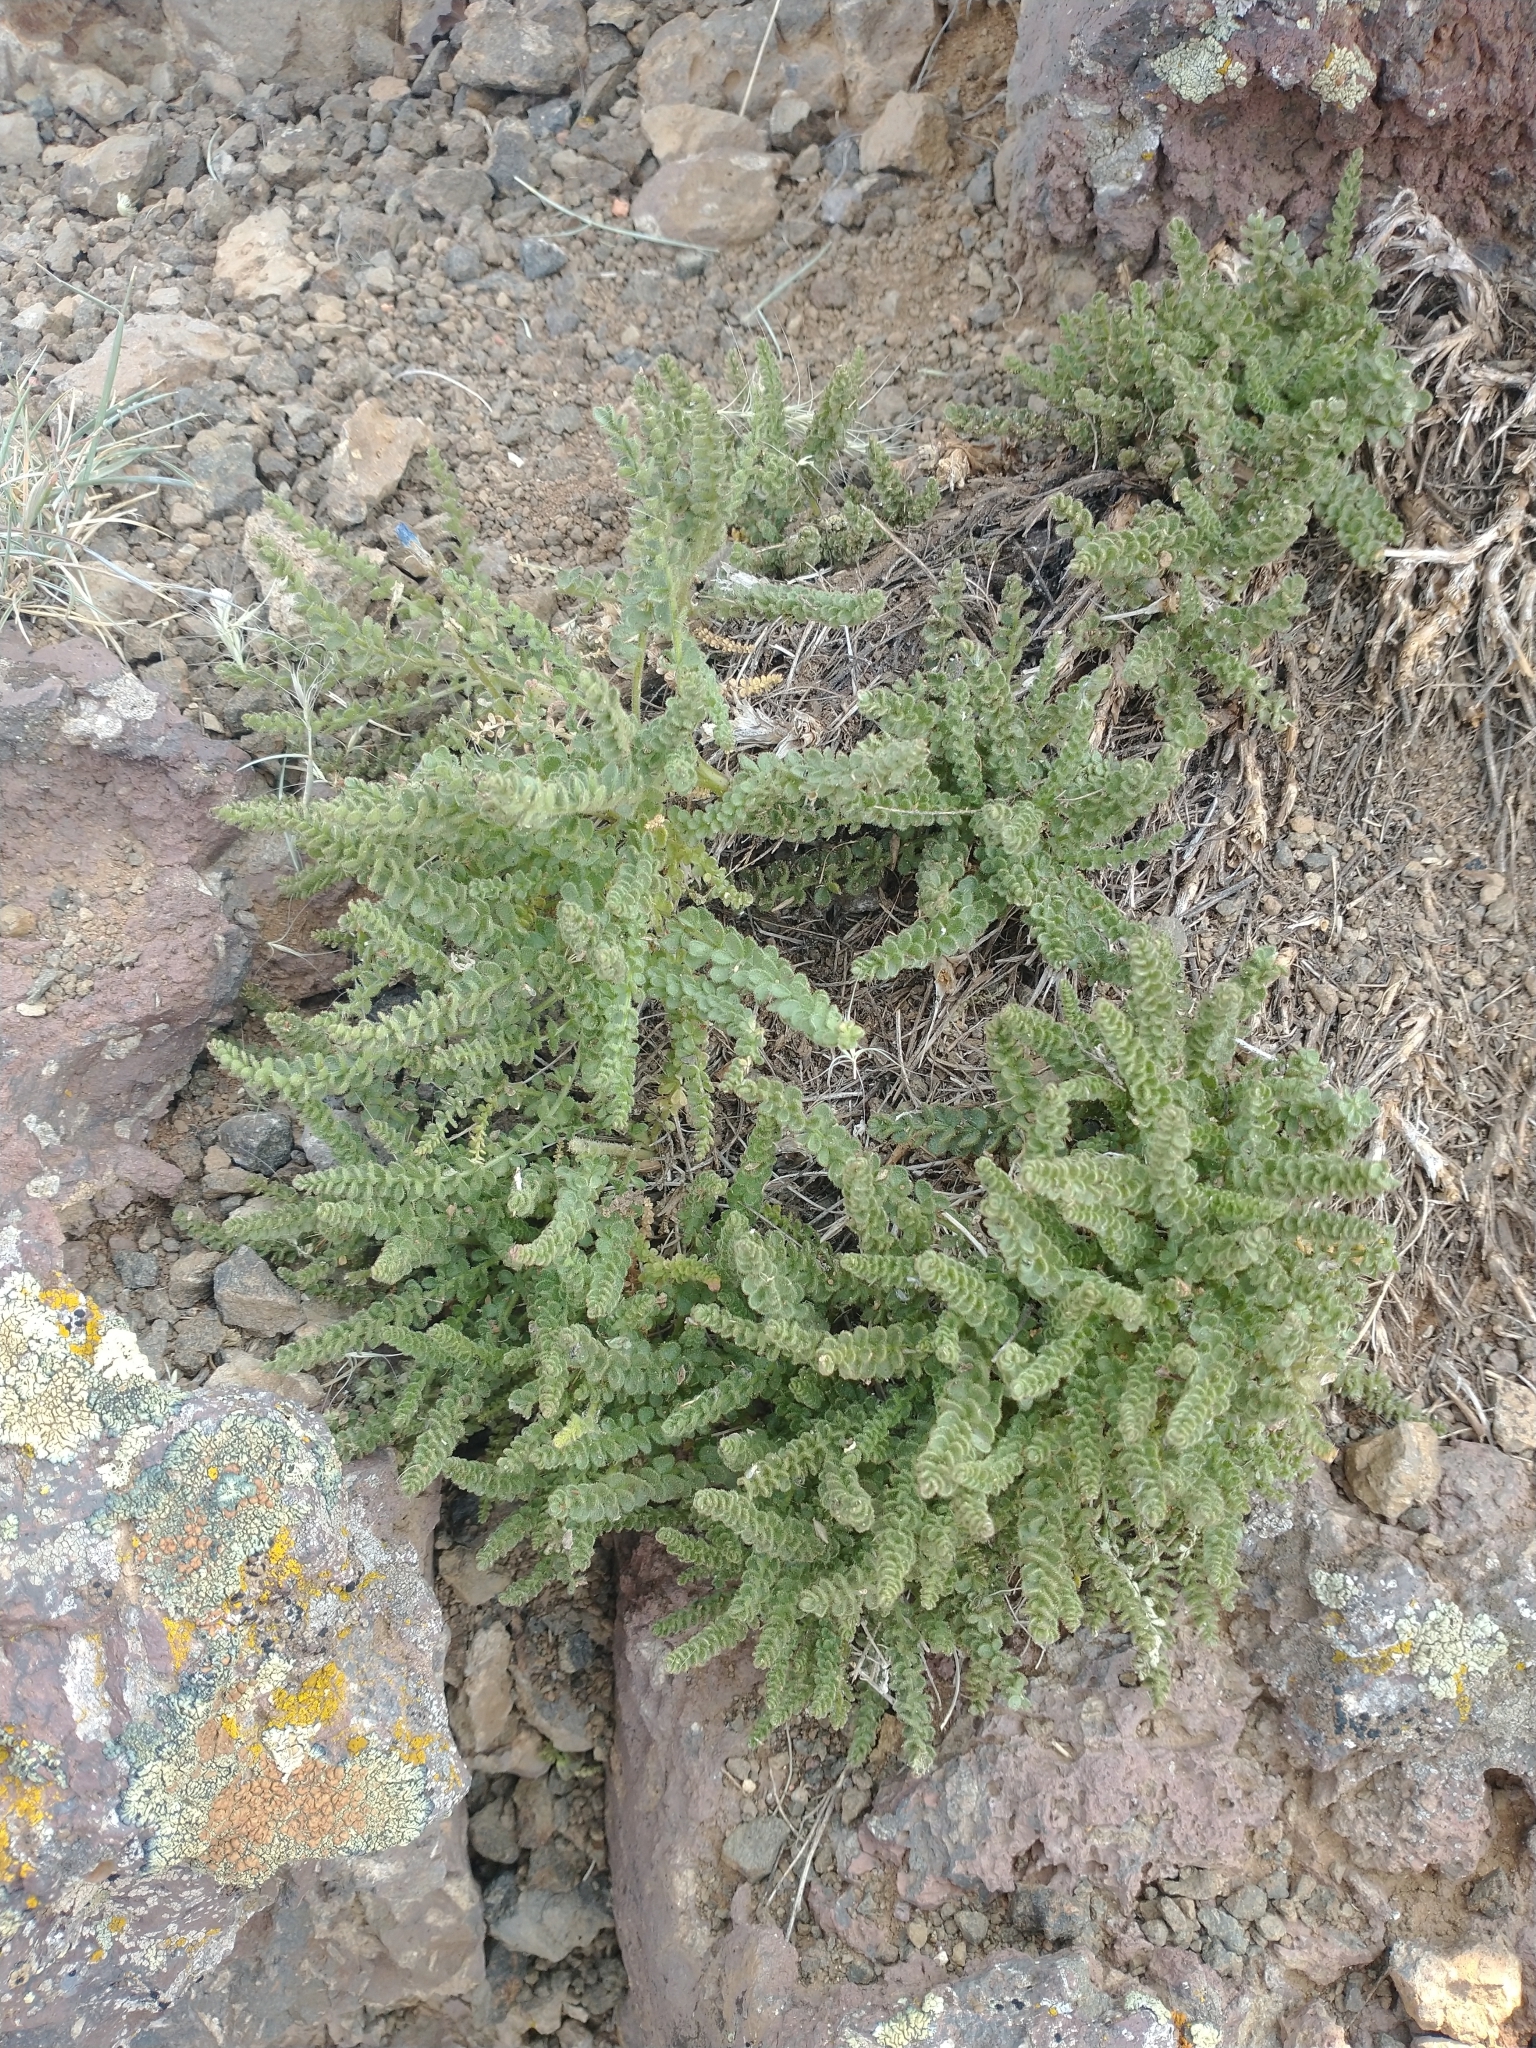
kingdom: Plantae
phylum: Tracheophyta
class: Magnoliopsida
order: Ericales
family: Polemoniaceae
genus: Polemonium
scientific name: Polemonium viscosum
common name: Skunk jacob's-ladder
